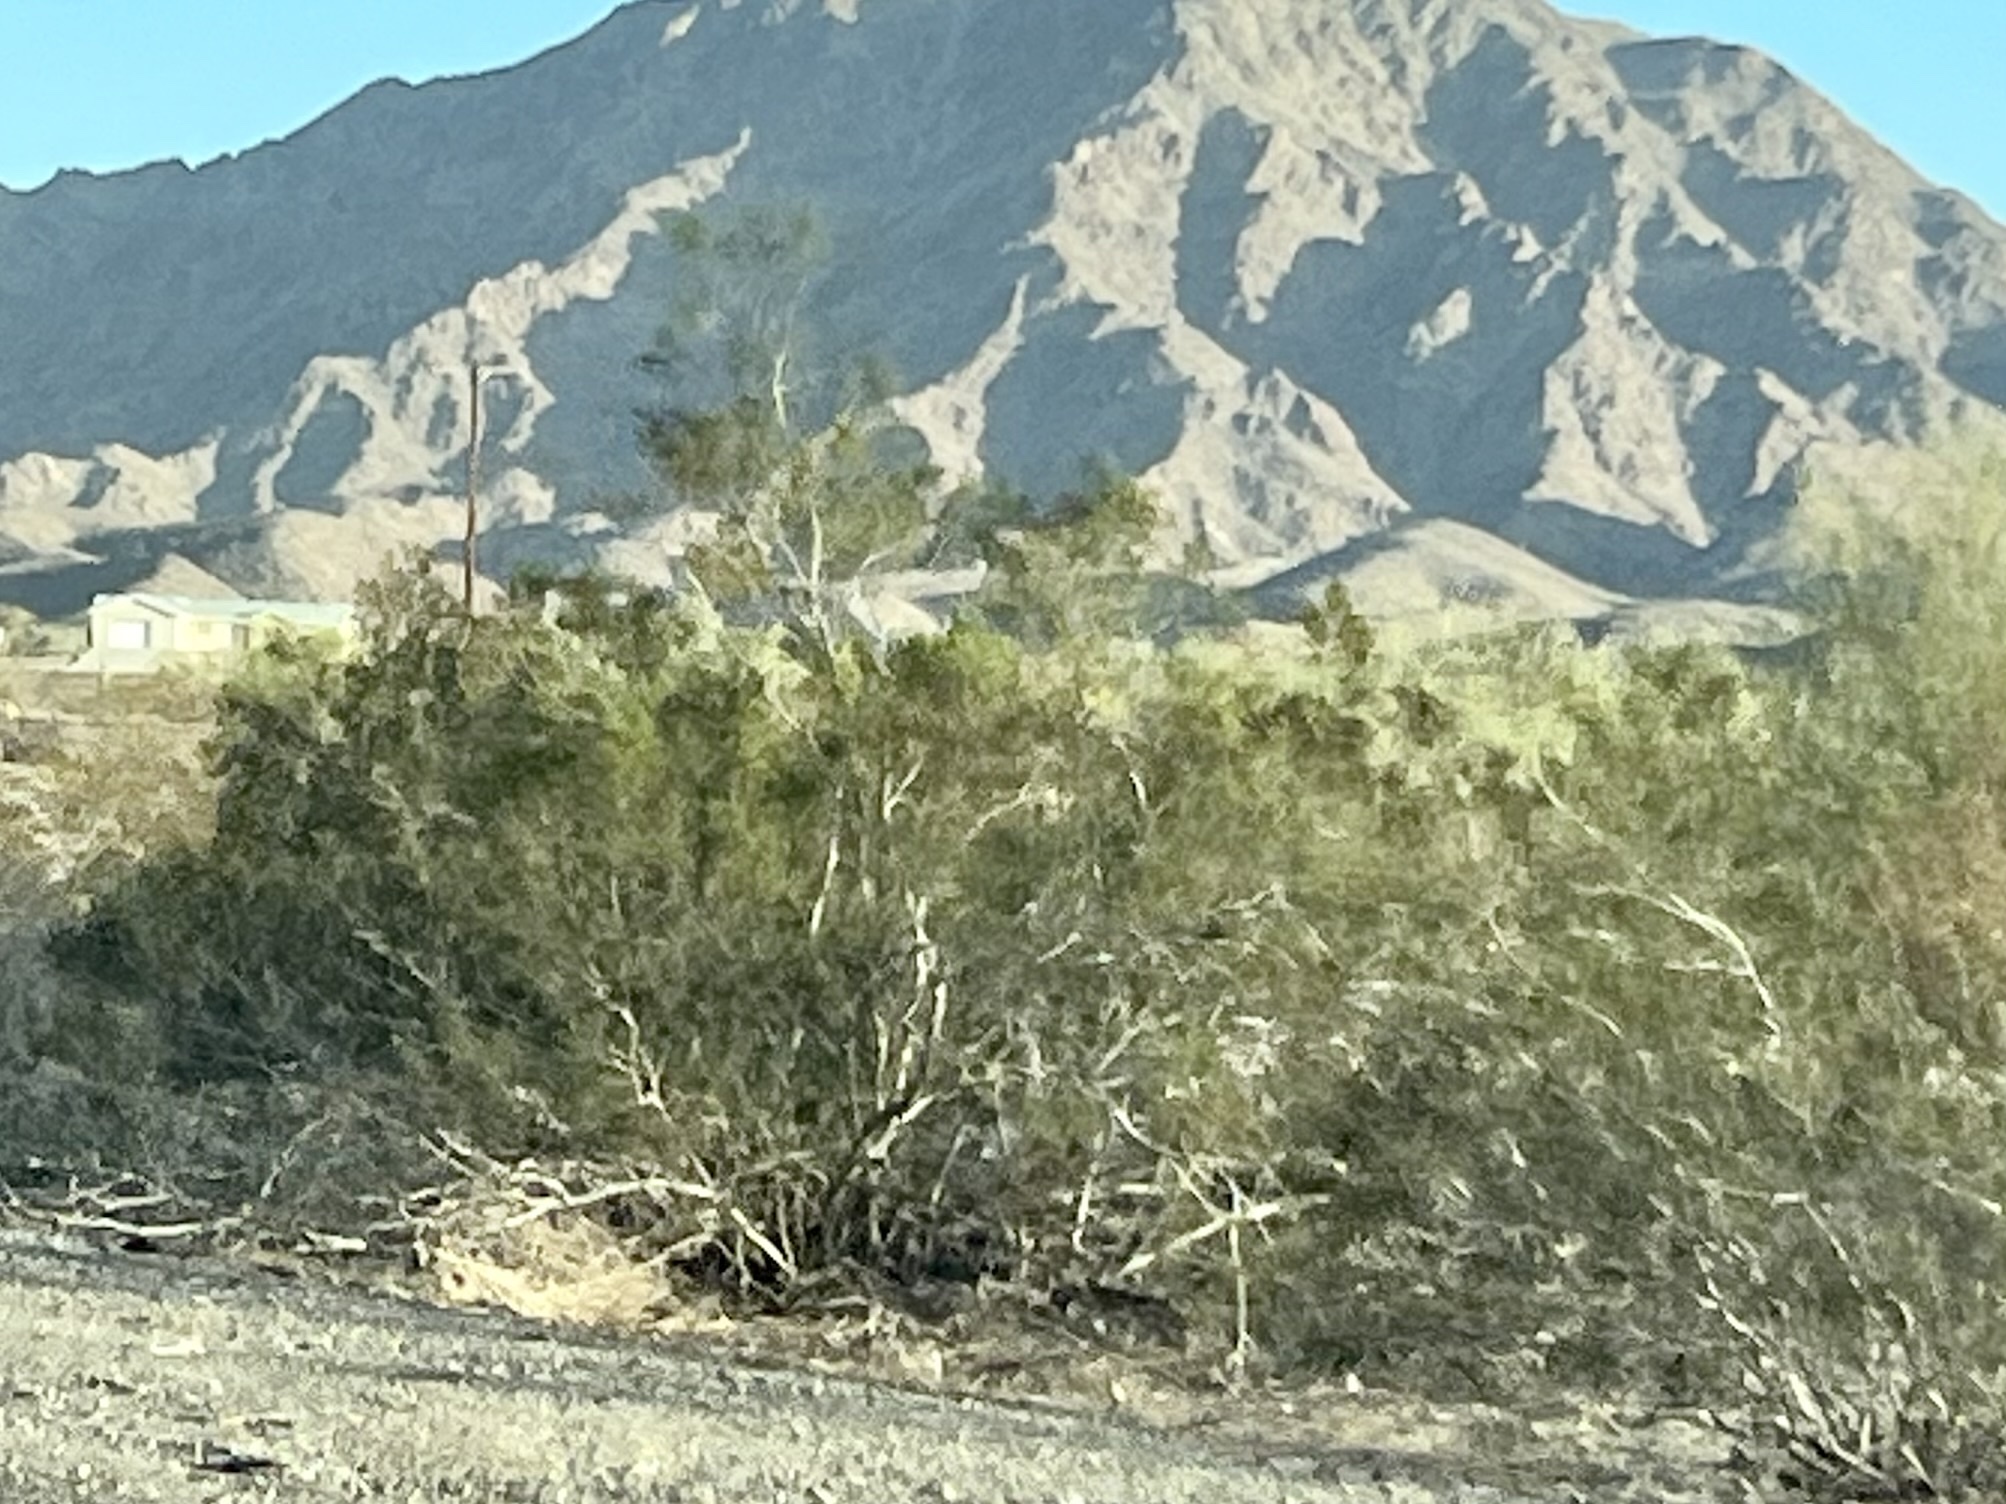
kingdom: Plantae
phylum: Tracheophyta
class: Magnoliopsida
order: Zygophyllales
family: Zygophyllaceae
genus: Larrea
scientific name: Larrea tridentata
